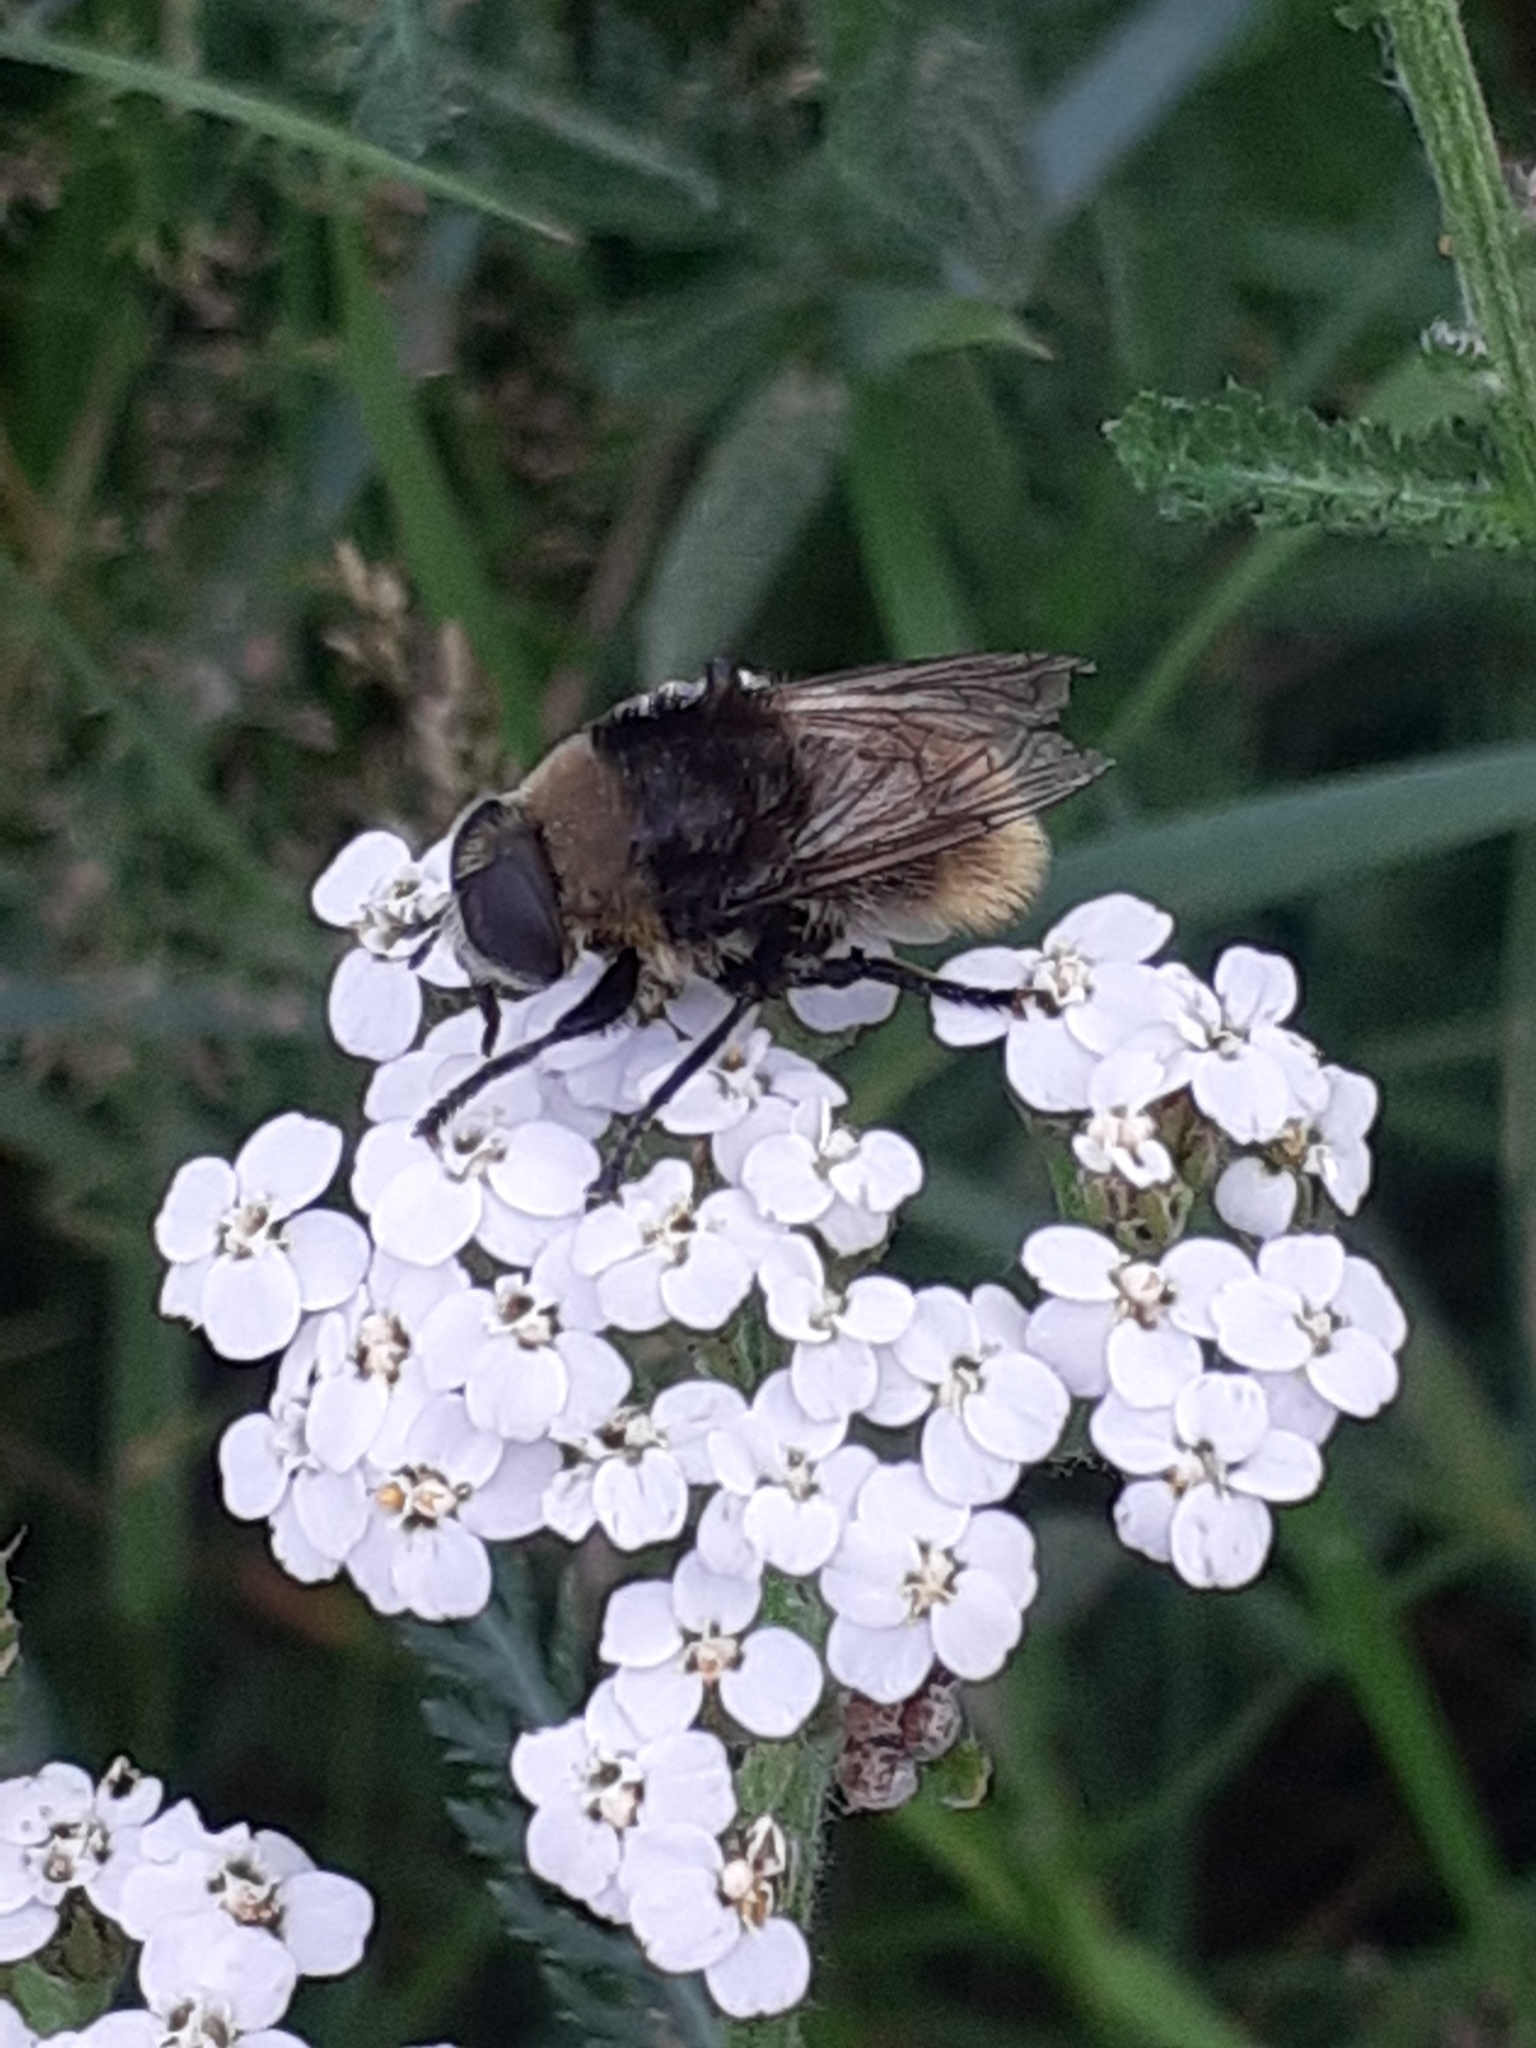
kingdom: Animalia
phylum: Arthropoda
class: Insecta
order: Diptera
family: Syrphidae
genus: Merodon
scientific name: Merodon equestris
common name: Greater bulb-fly
